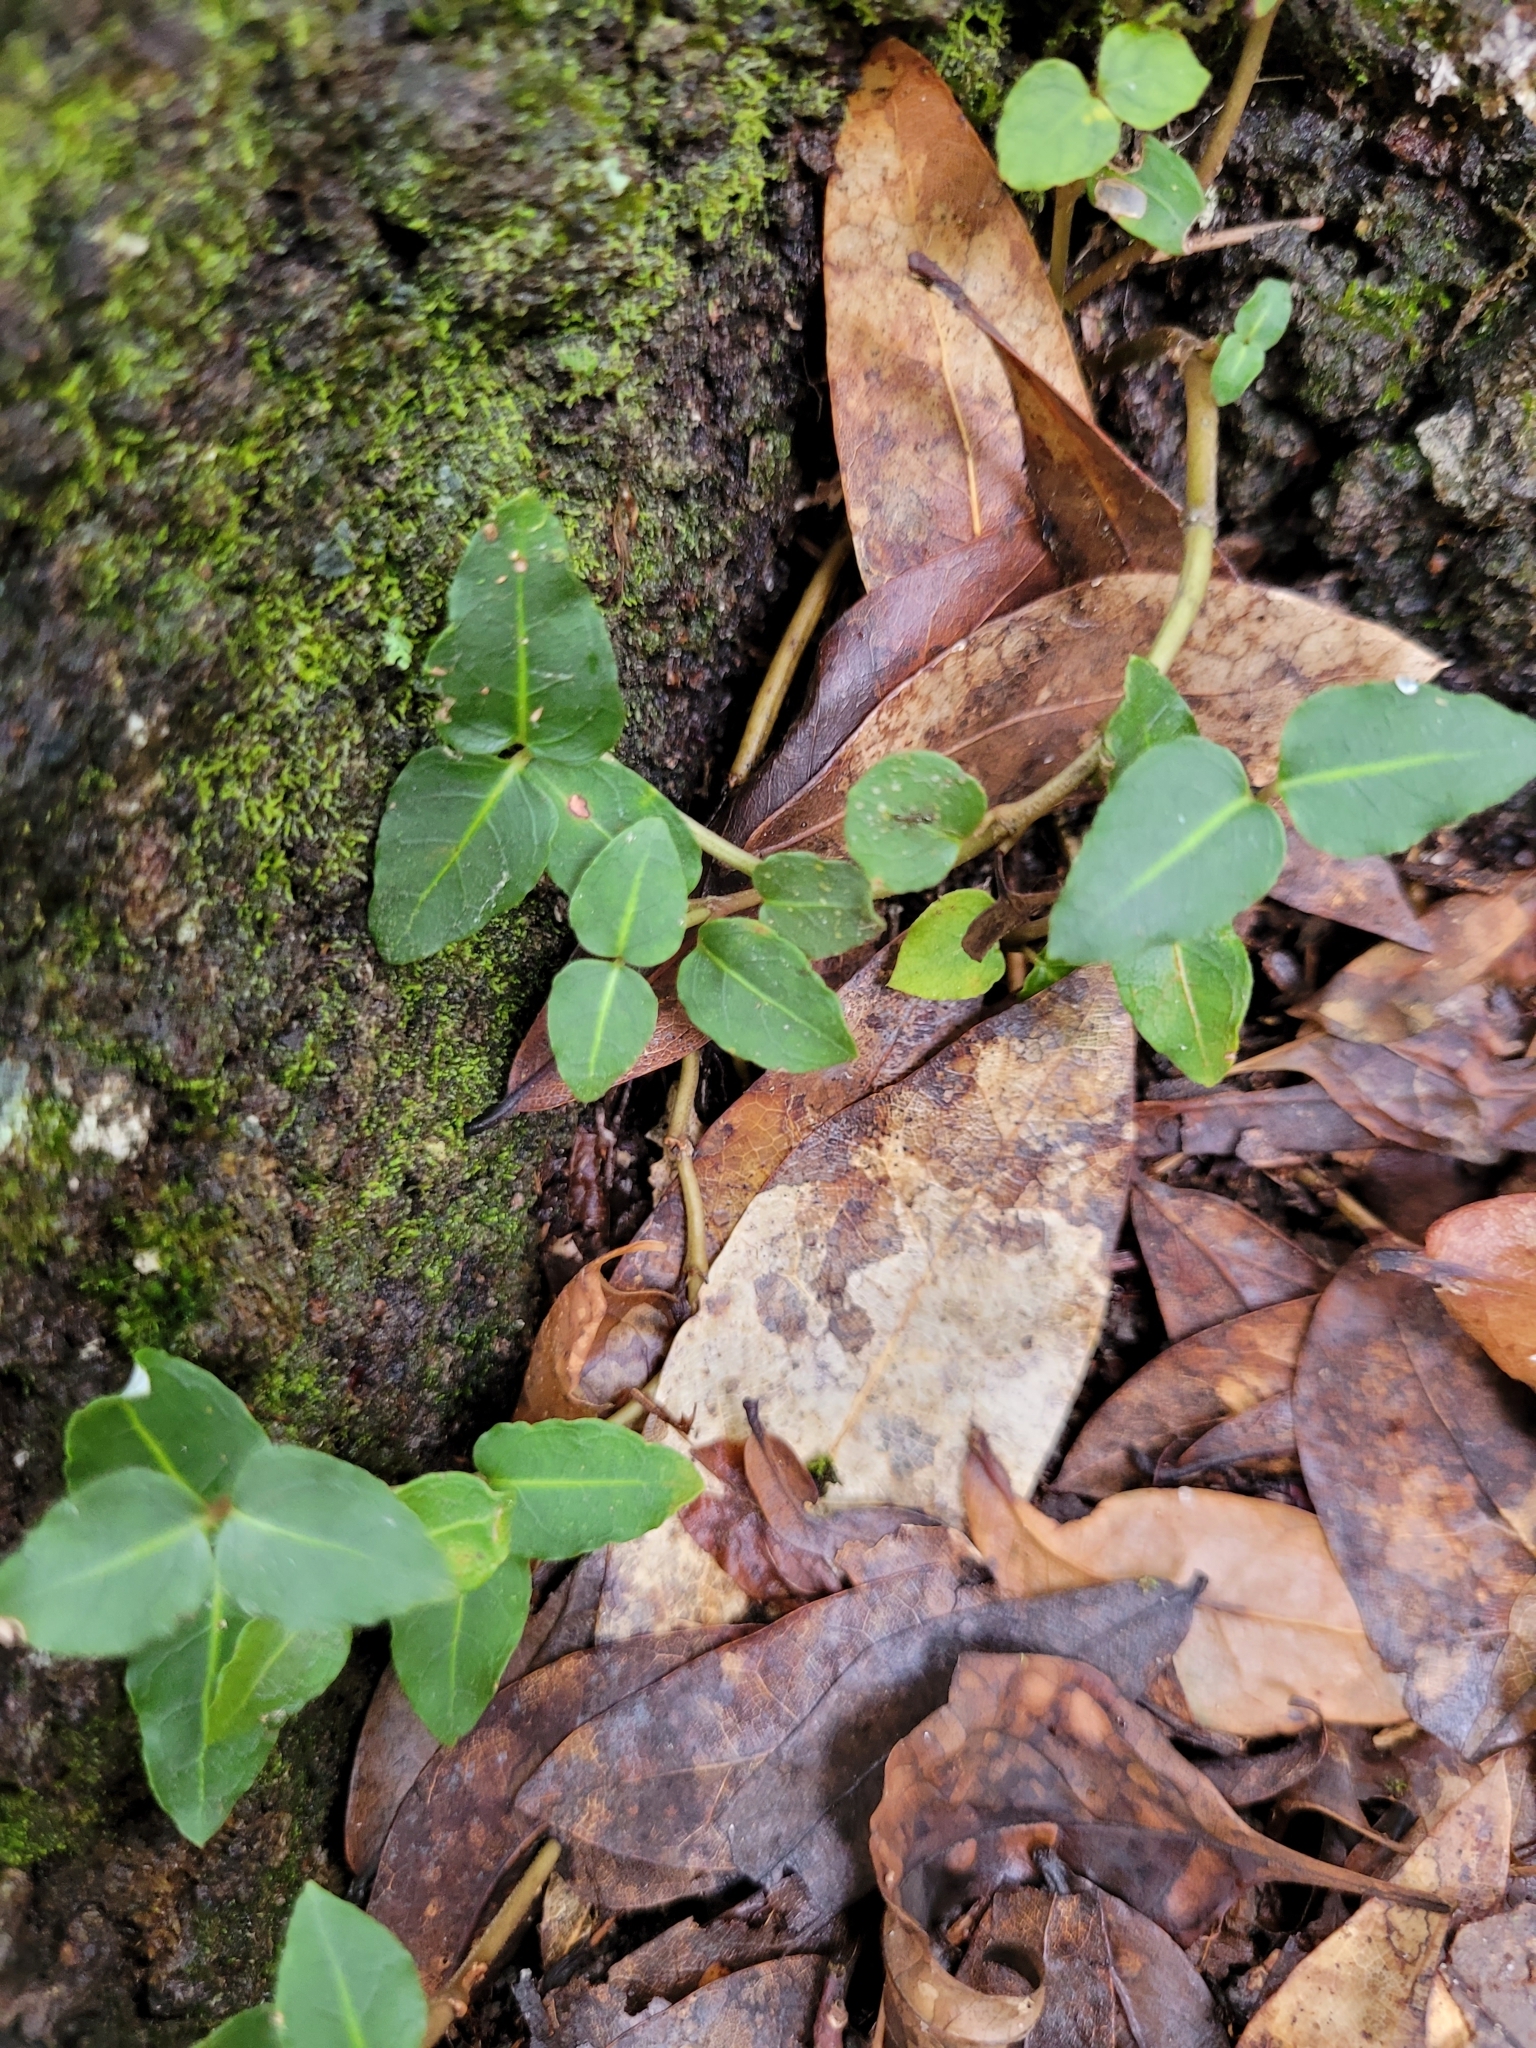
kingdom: Plantae
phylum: Tracheophyta
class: Magnoliopsida
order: Gentianales
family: Rubiaceae
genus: Mitchella
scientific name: Mitchella repens
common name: Partridge-berry
